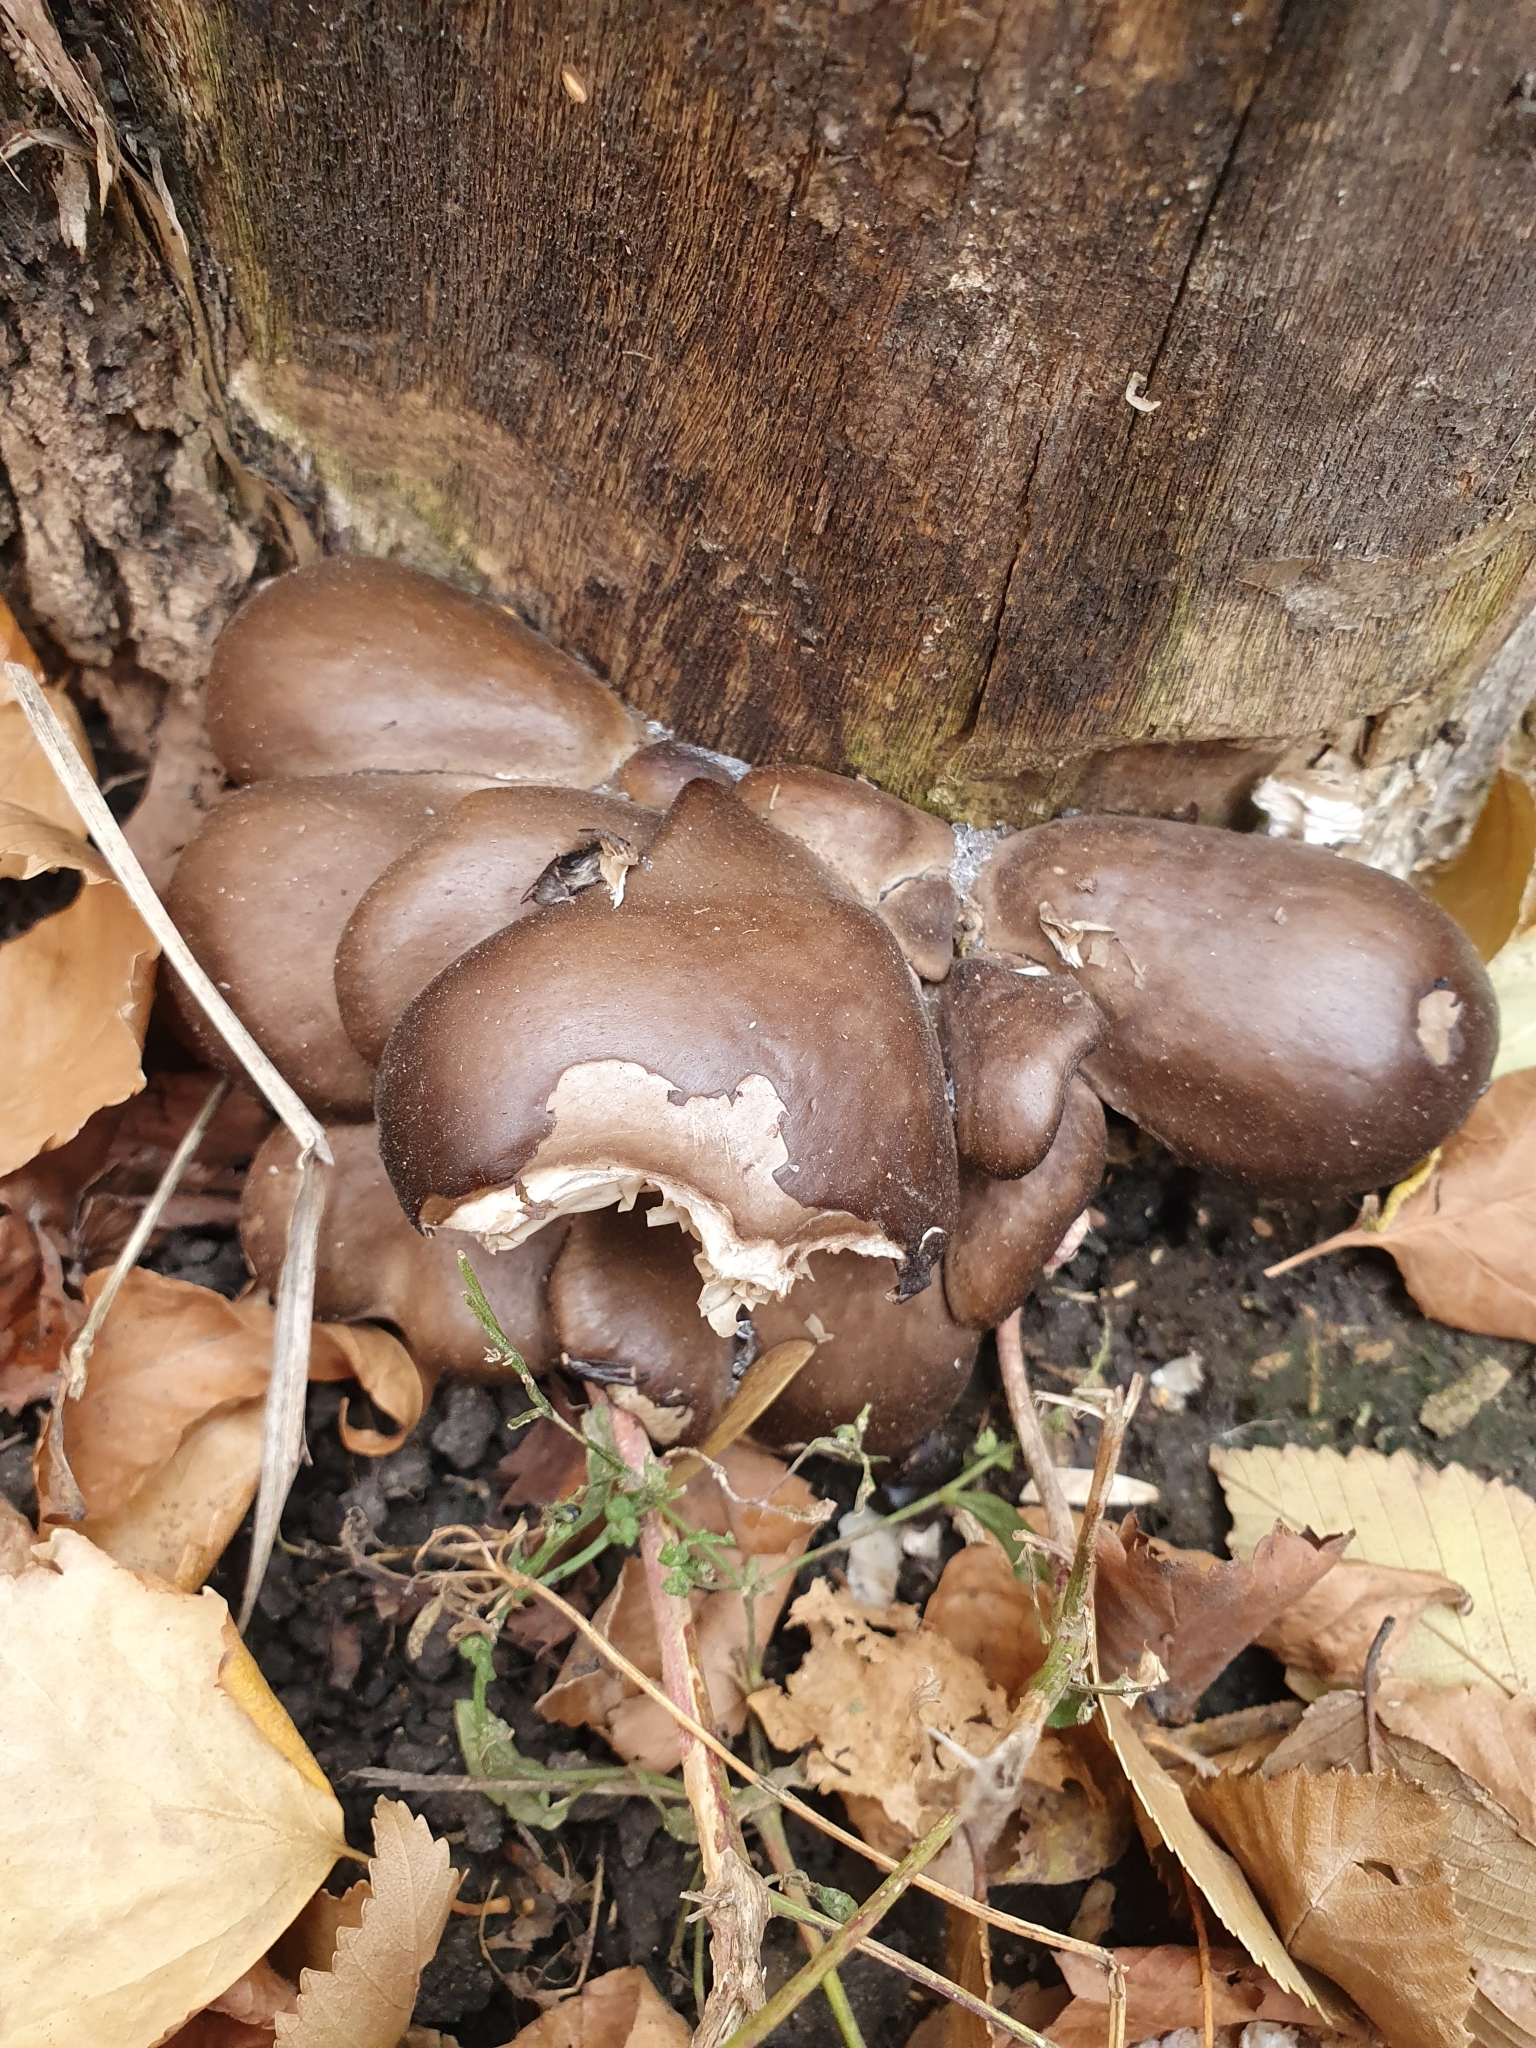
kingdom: Fungi
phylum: Basidiomycota
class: Agaricomycetes
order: Agaricales
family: Pleurotaceae
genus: Pleurotus
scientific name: Pleurotus ostreatus
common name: Oyster mushroom
